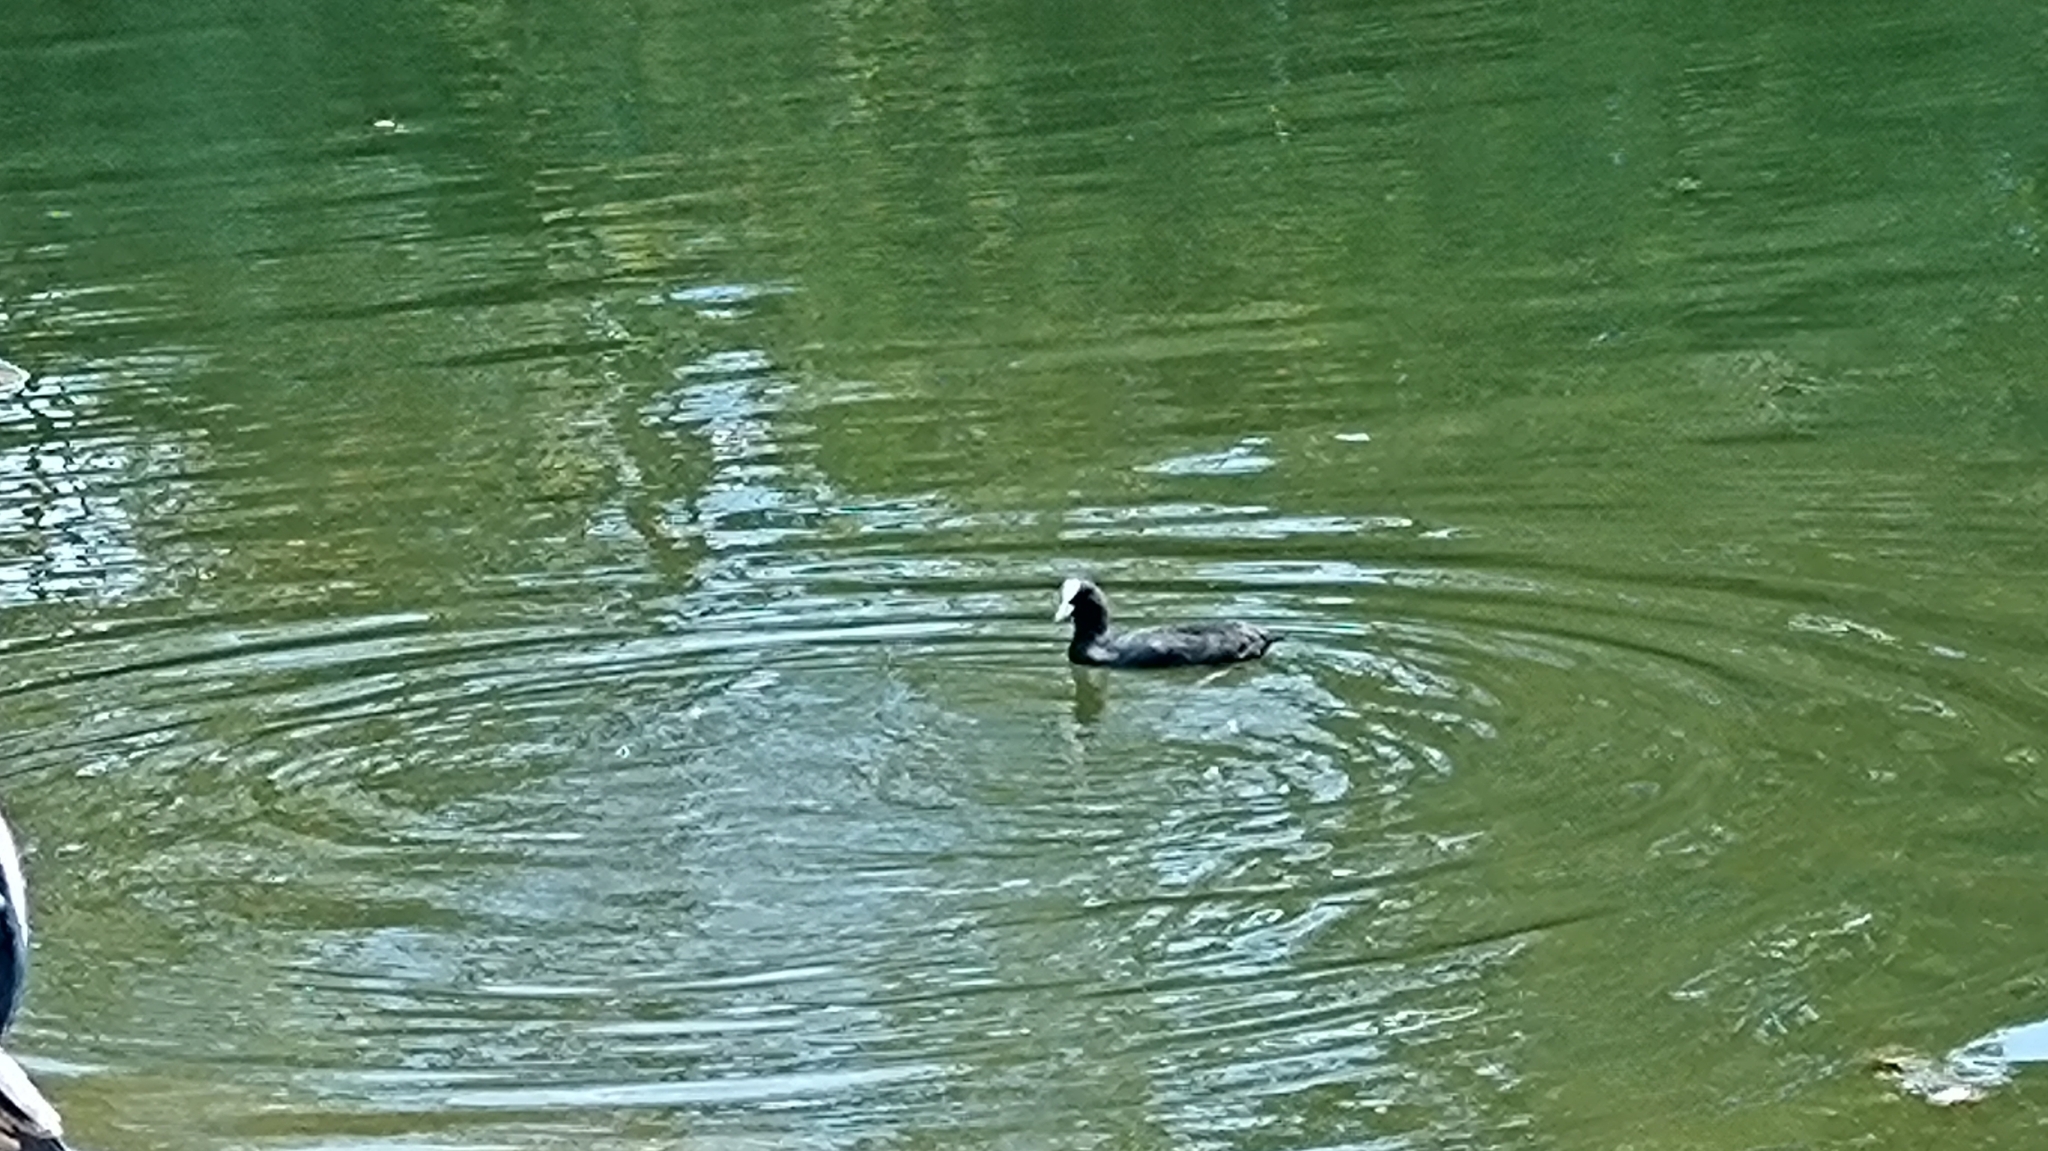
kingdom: Animalia
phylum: Chordata
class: Aves
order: Gruiformes
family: Rallidae
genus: Fulica
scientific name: Fulica atra
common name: Eurasian coot
